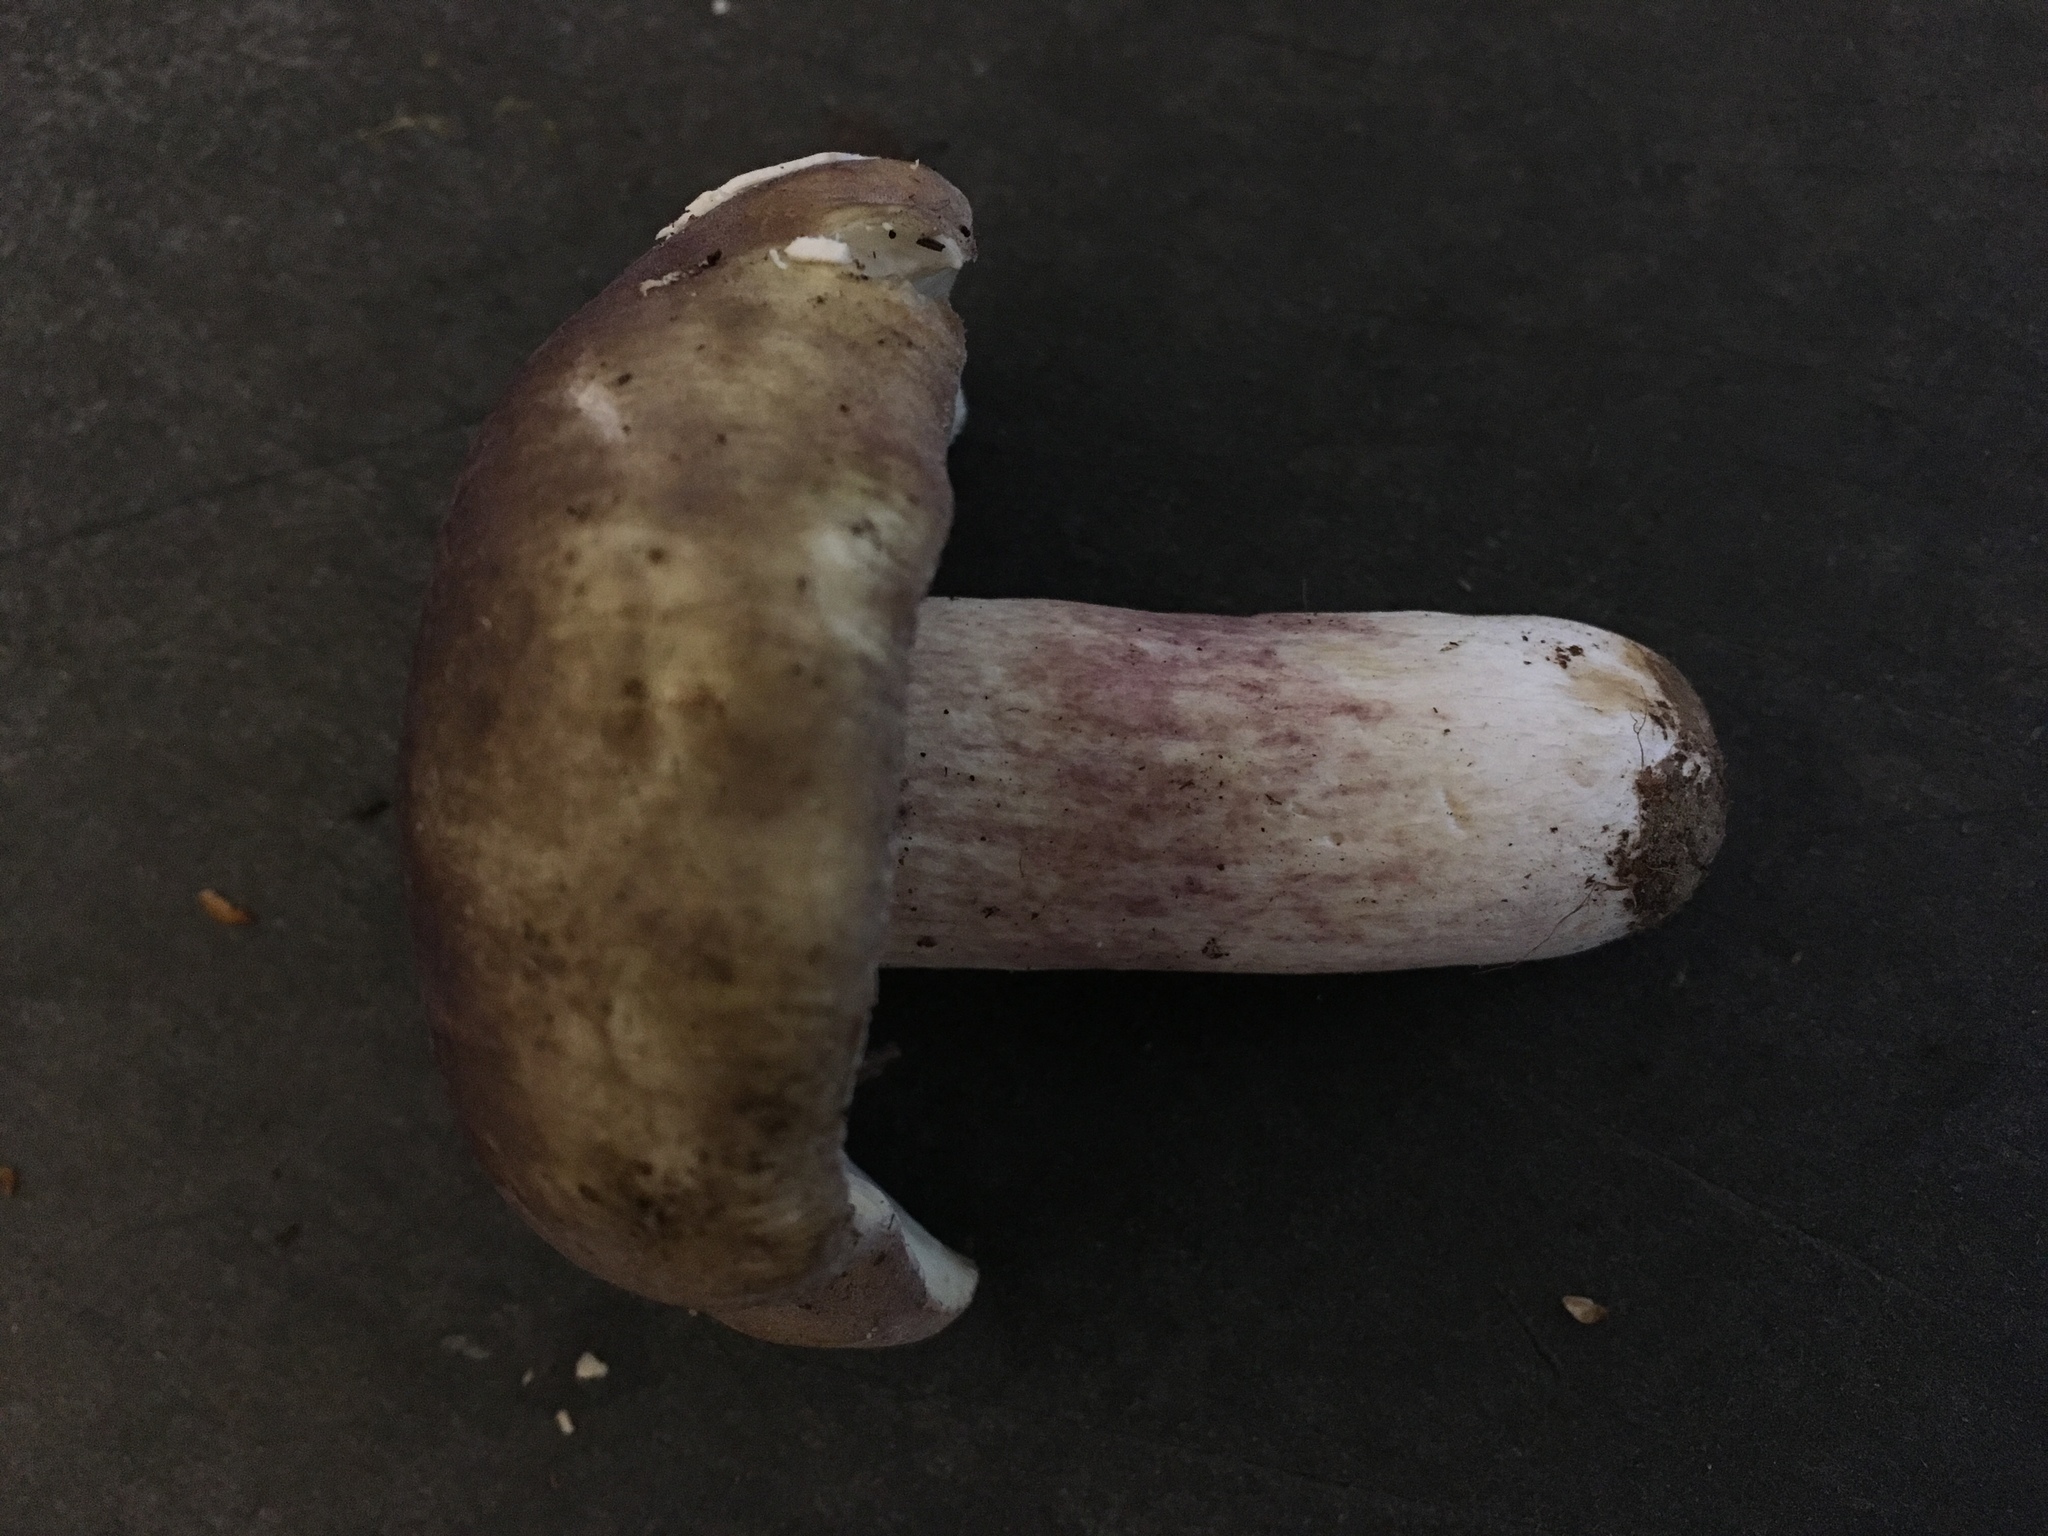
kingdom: Fungi
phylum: Basidiomycota
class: Agaricomycetes
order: Russulales
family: Russulaceae
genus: Russula
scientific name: Russula olivacea
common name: Olive brittlegill
